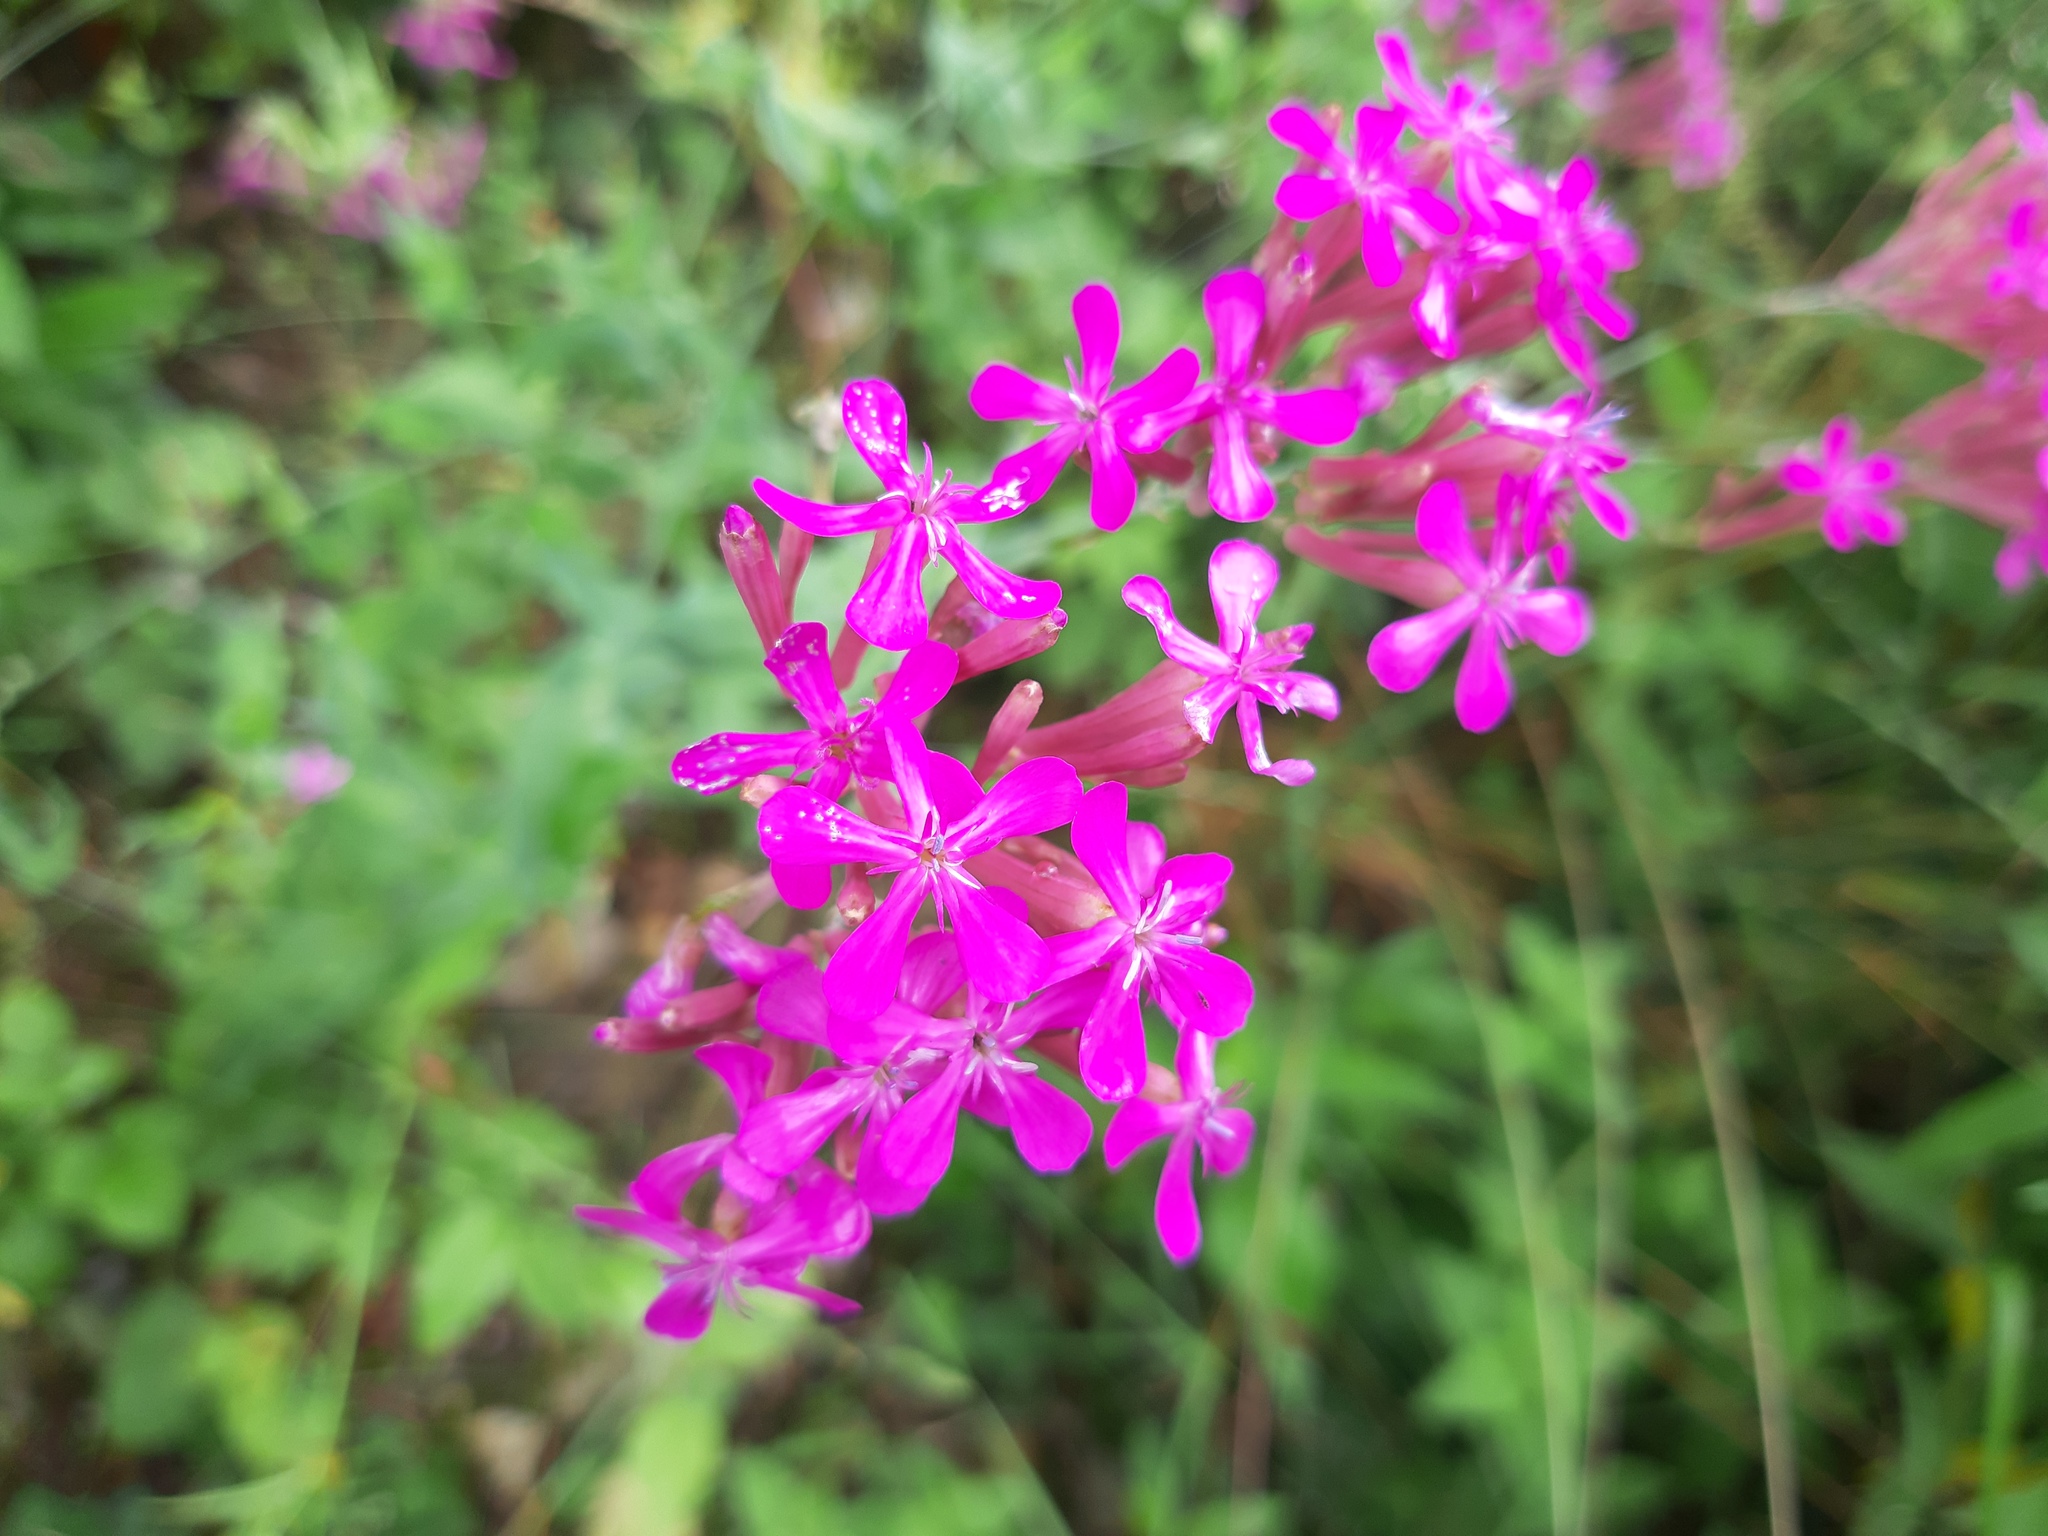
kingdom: Plantae
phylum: Tracheophyta
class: Magnoliopsida
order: Caryophyllales
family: Caryophyllaceae
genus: Atocion
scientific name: Atocion armeria
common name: Sweet william catchfly
